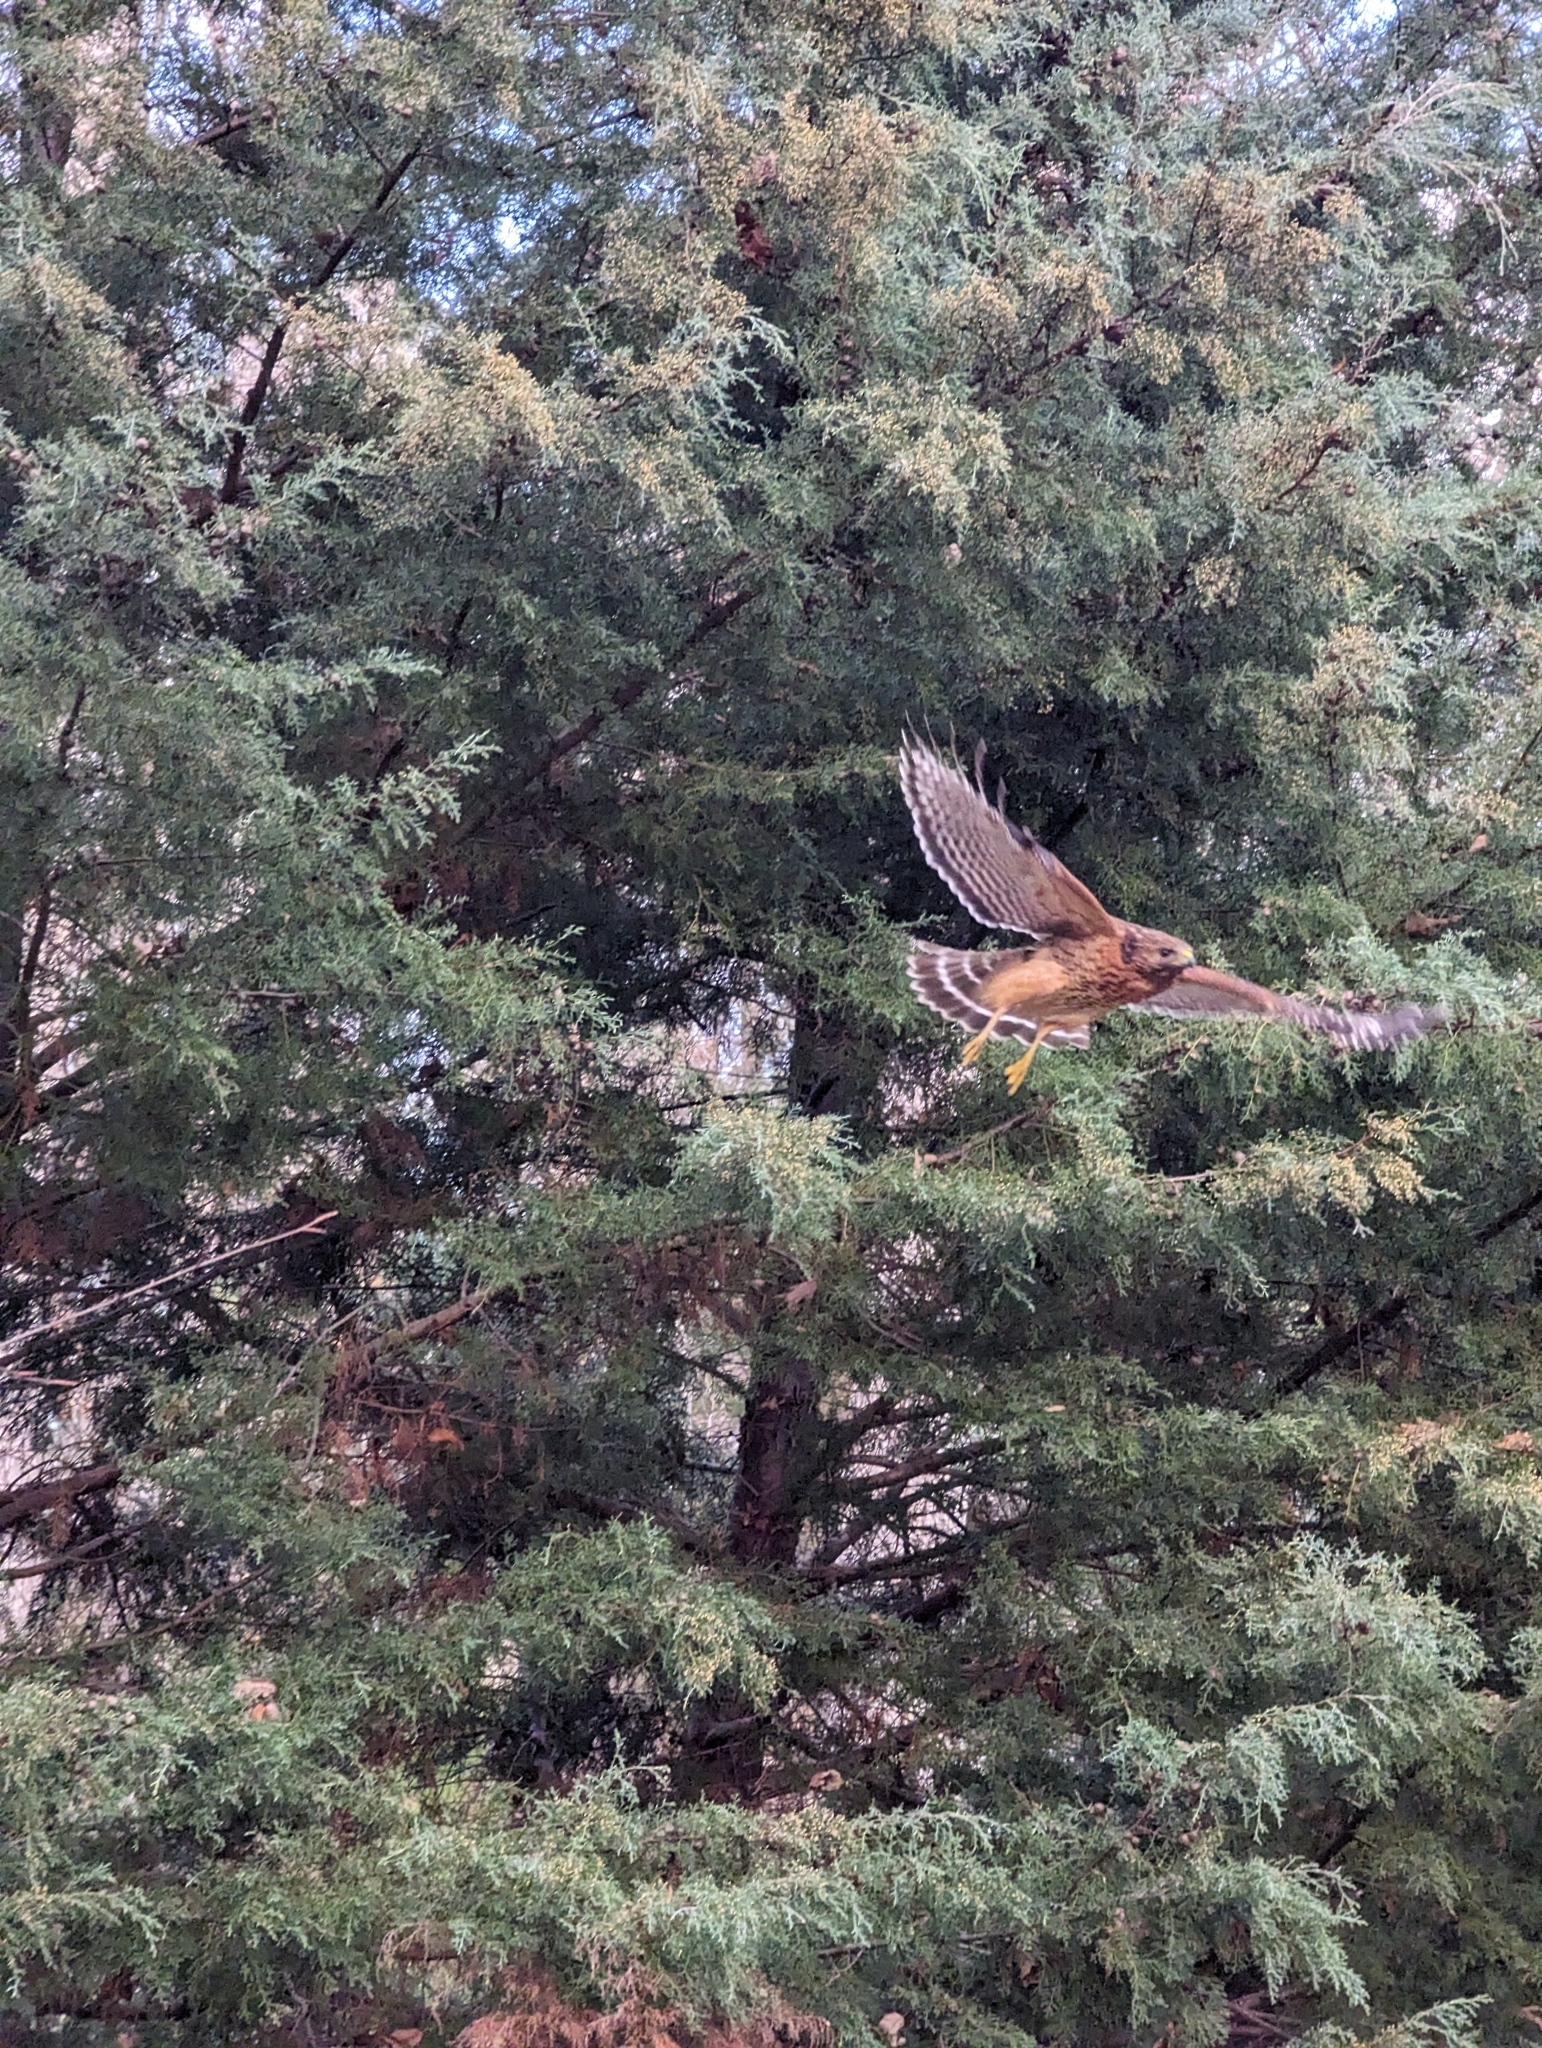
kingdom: Animalia
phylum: Chordata
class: Aves
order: Accipitriformes
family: Accipitridae
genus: Buteo
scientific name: Buteo lineatus
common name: Red-shouldered hawk
